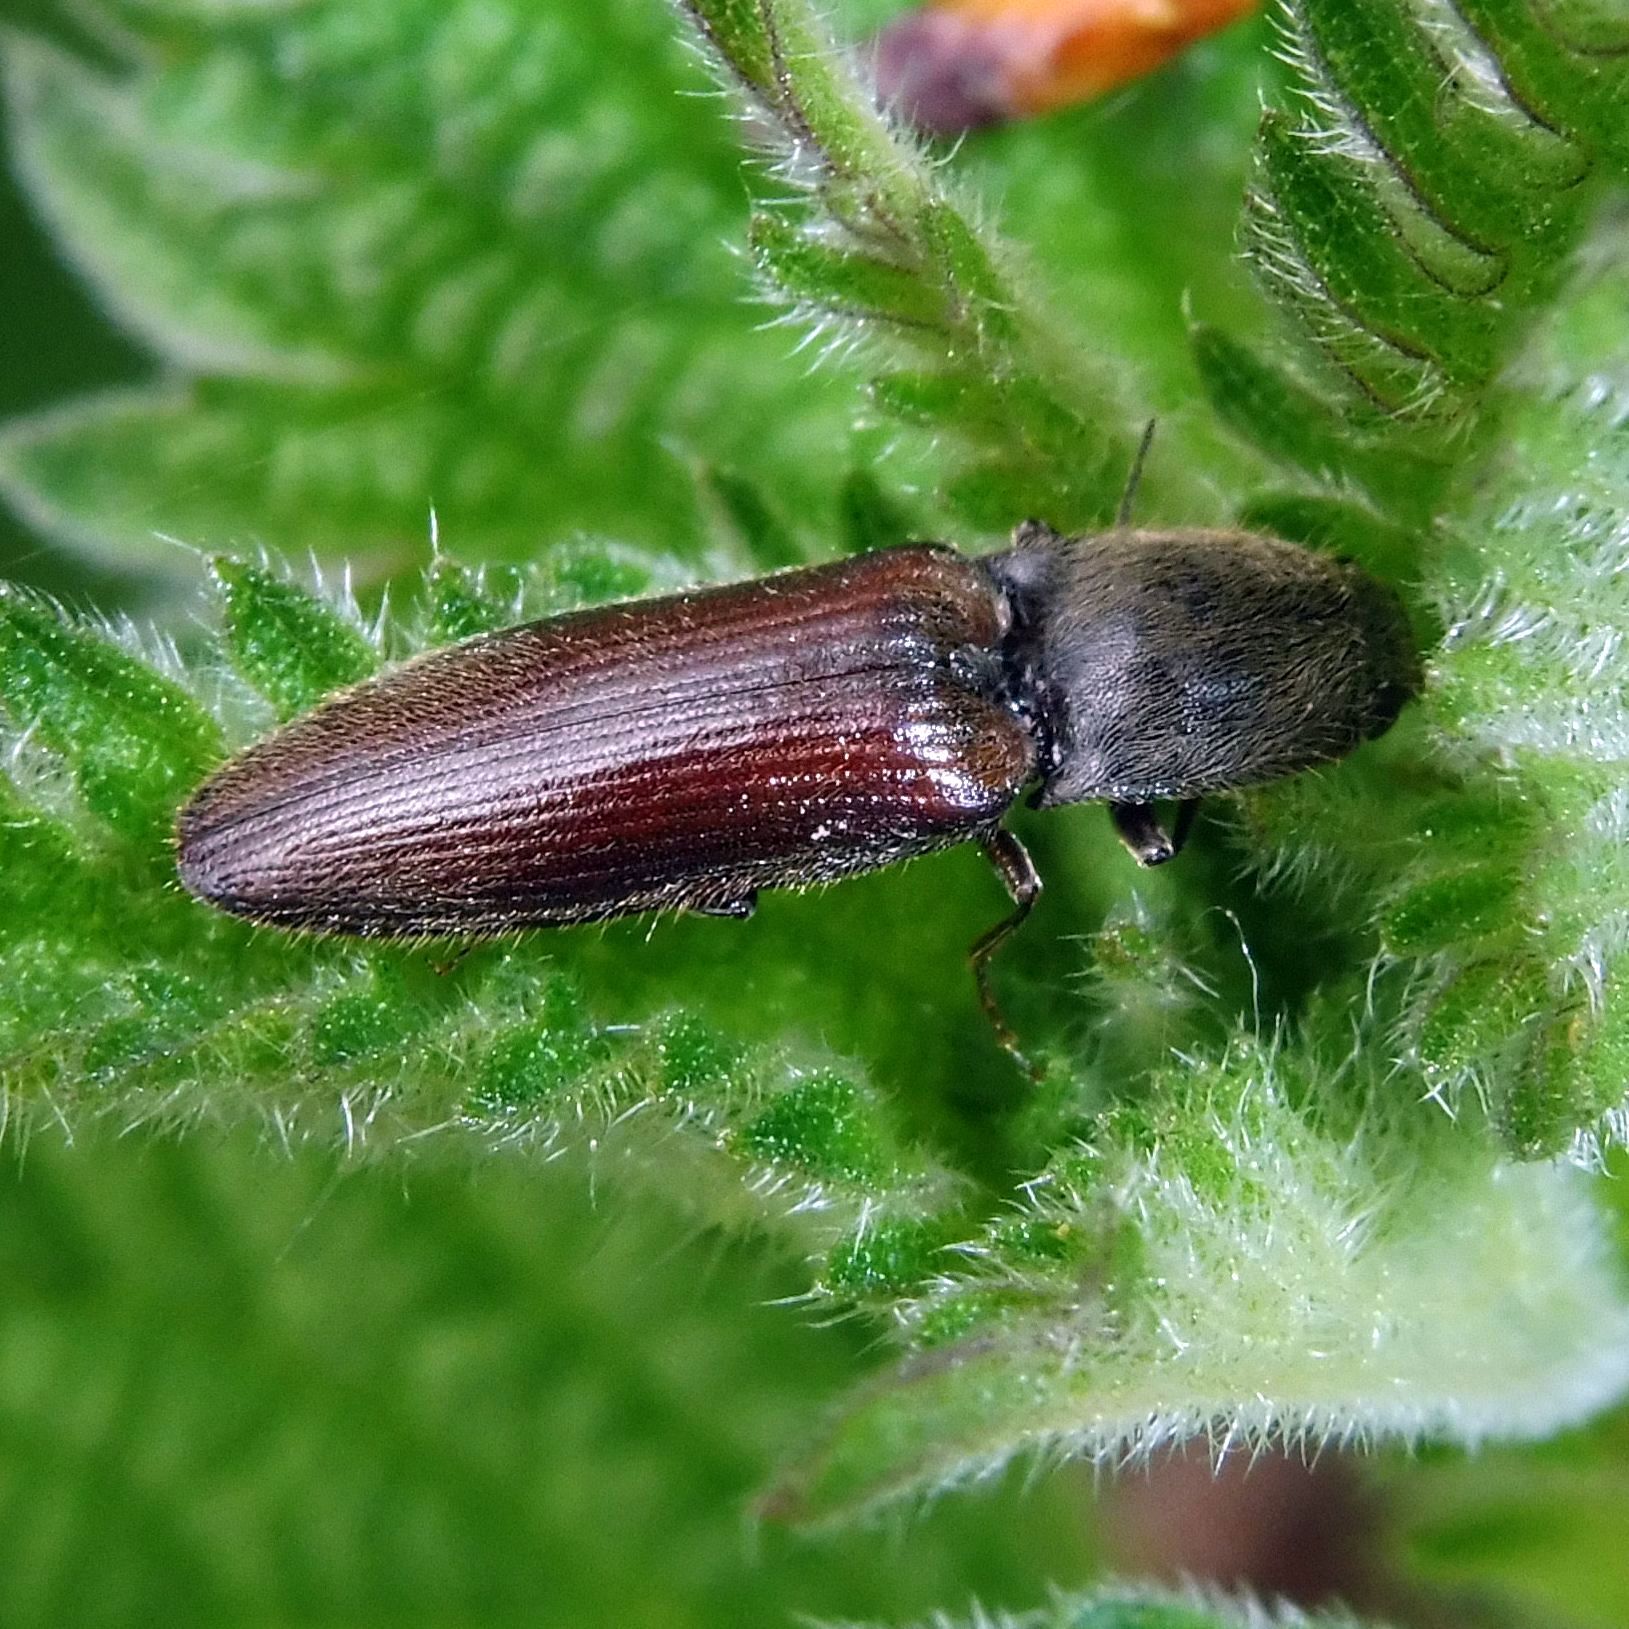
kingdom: Animalia
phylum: Arthropoda
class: Insecta
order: Coleoptera
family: Elateridae
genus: Athous
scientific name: Athous haemorrhoidalis
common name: Red-brown click beetle
